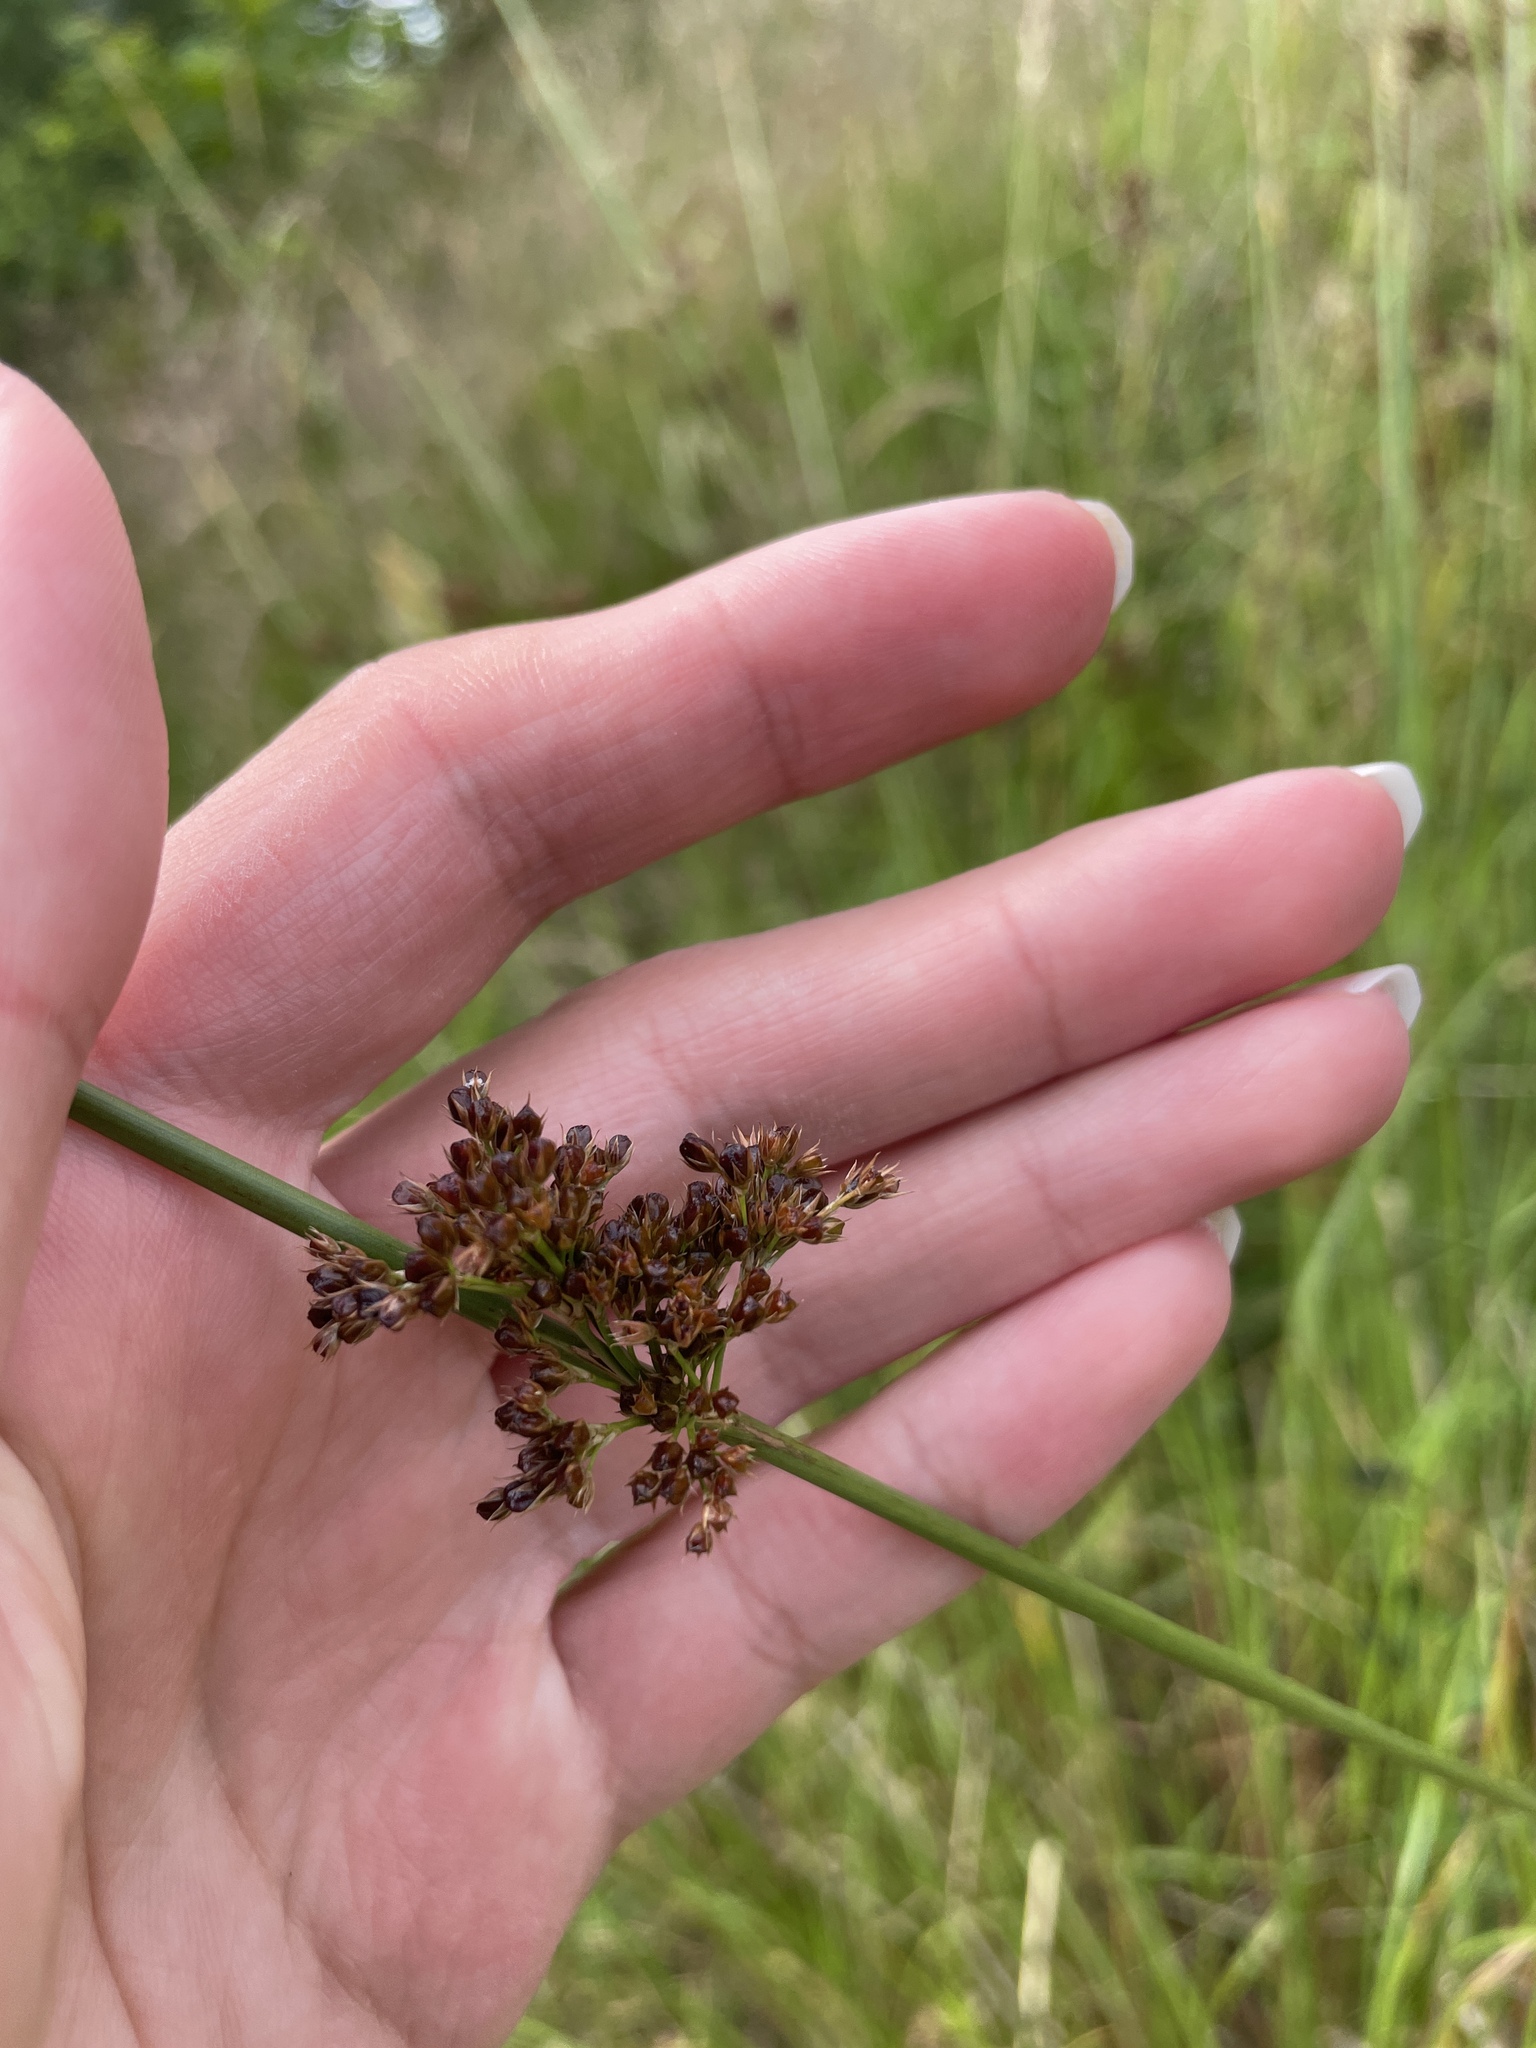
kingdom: Plantae
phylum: Tracheophyta
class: Liliopsida
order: Poales
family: Juncaceae
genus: Juncus
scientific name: Juncus effusus
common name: Soft rush
